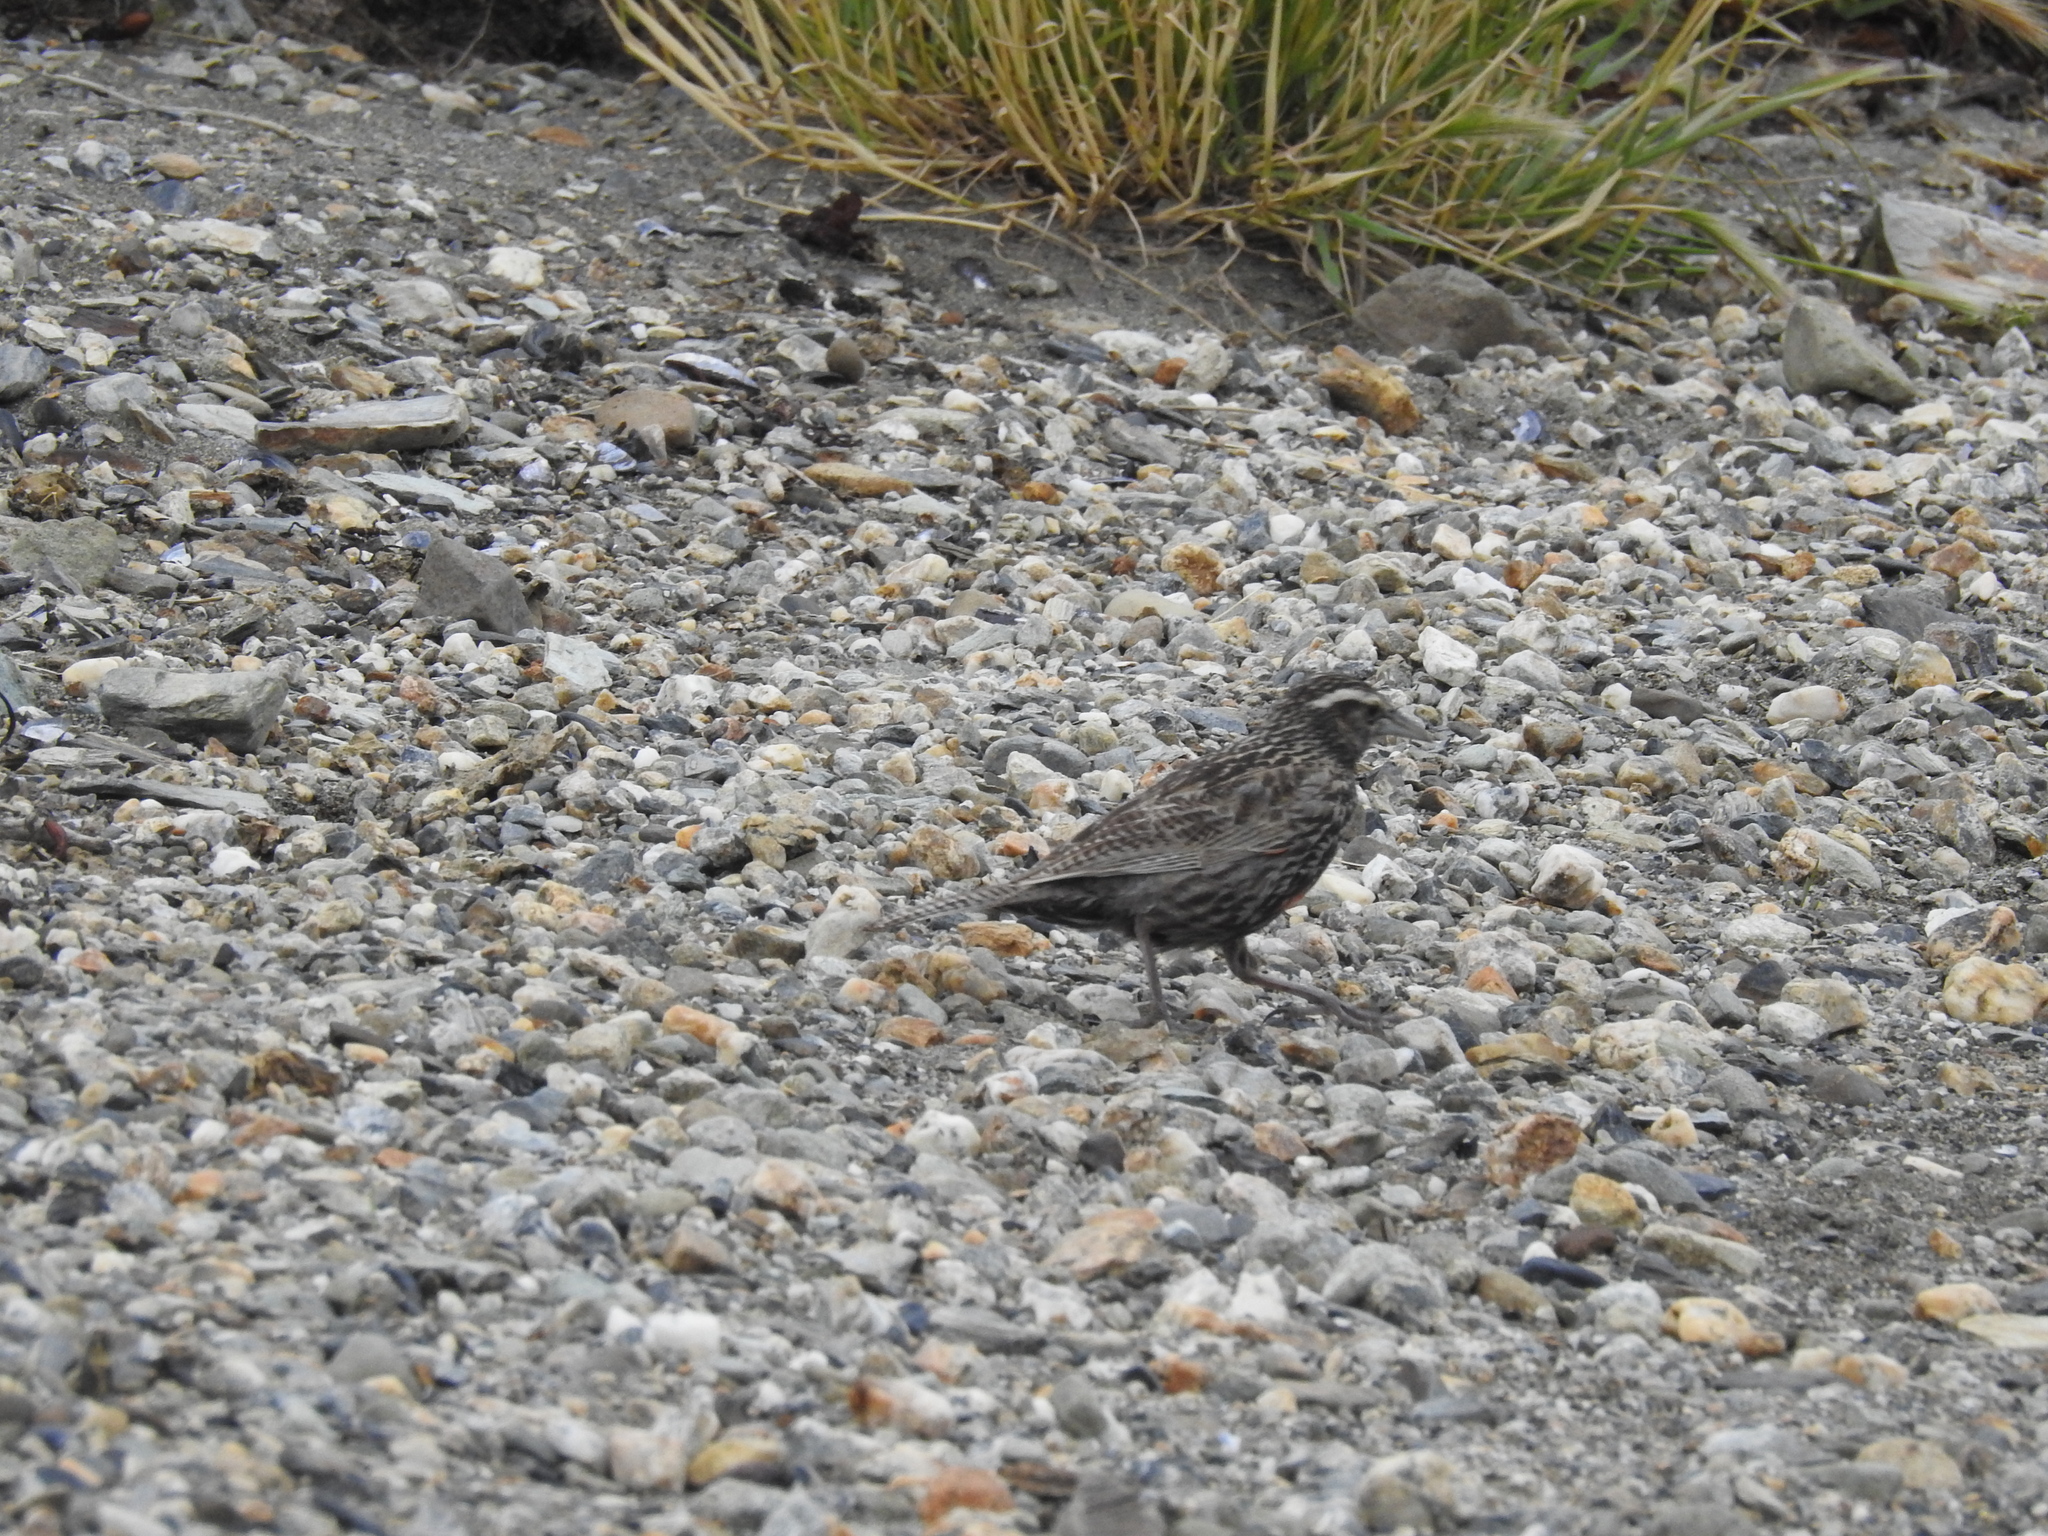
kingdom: Animalia
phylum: Chordata
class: Aves
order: Passeriformes
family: Icteridae
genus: Sturnella
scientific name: Sturnella loyca
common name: Long-tailed meadowlark
